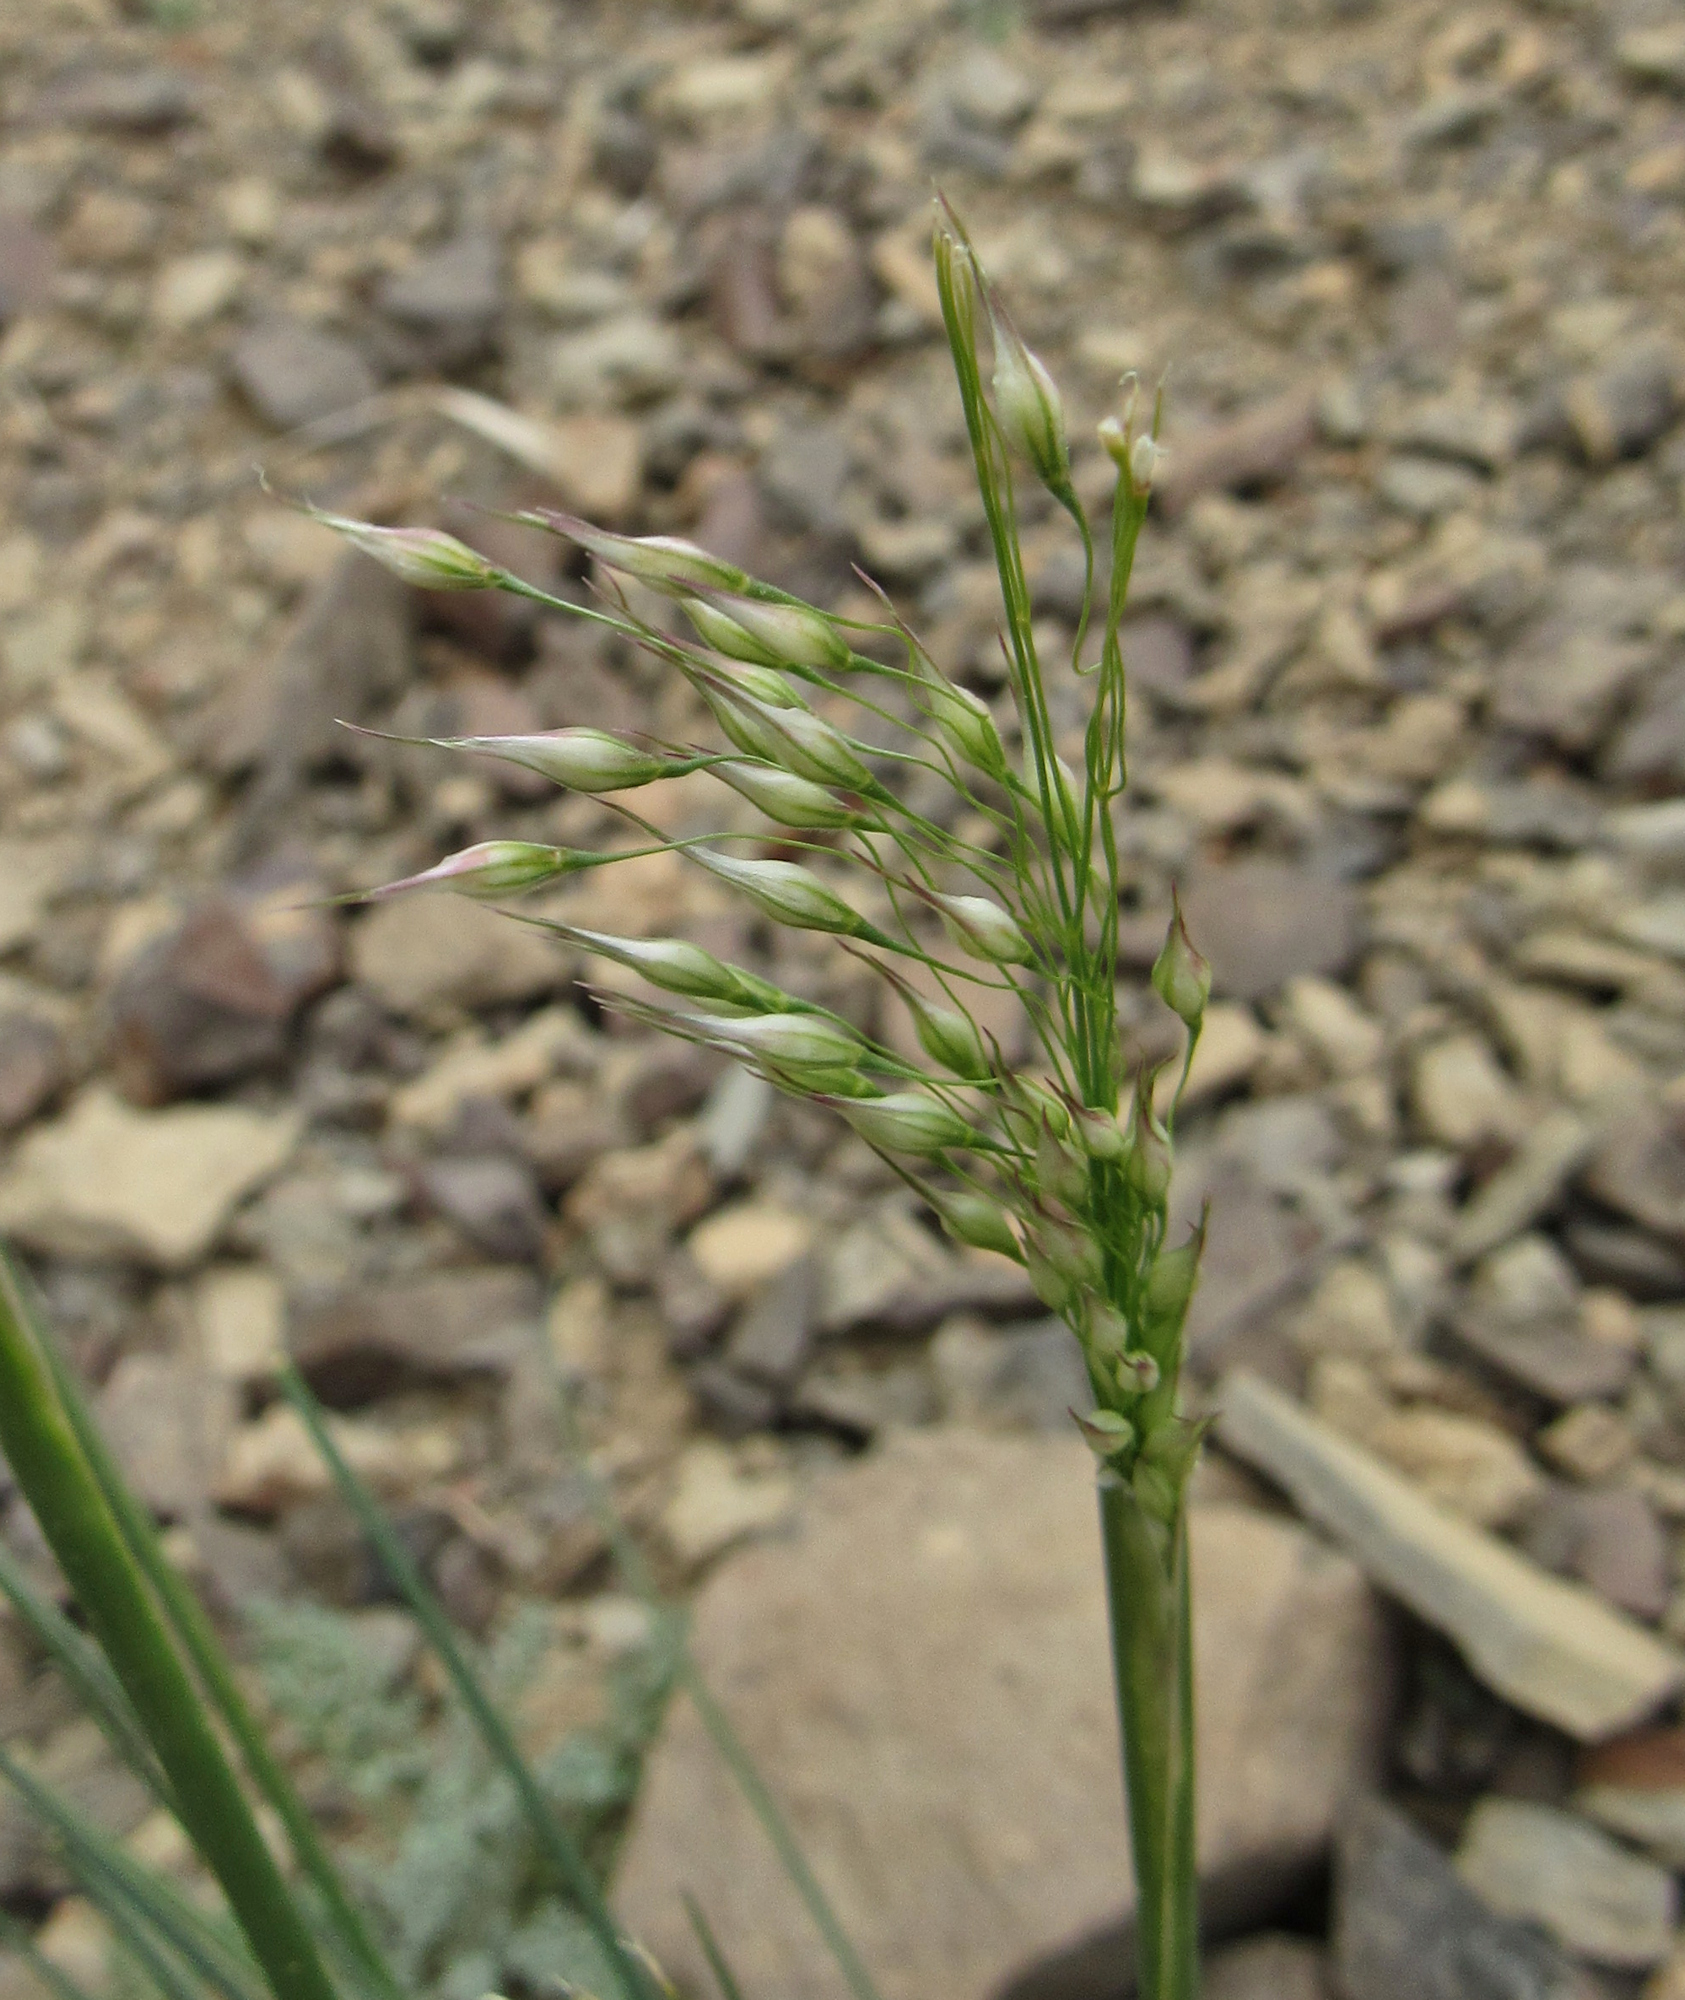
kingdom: Plantae
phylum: Tracheophyta
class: Liliopsida
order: Poales
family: Poaceae
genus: Eriocoma
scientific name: Eriocoma hymenoides
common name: Indian mountain ricegrass
